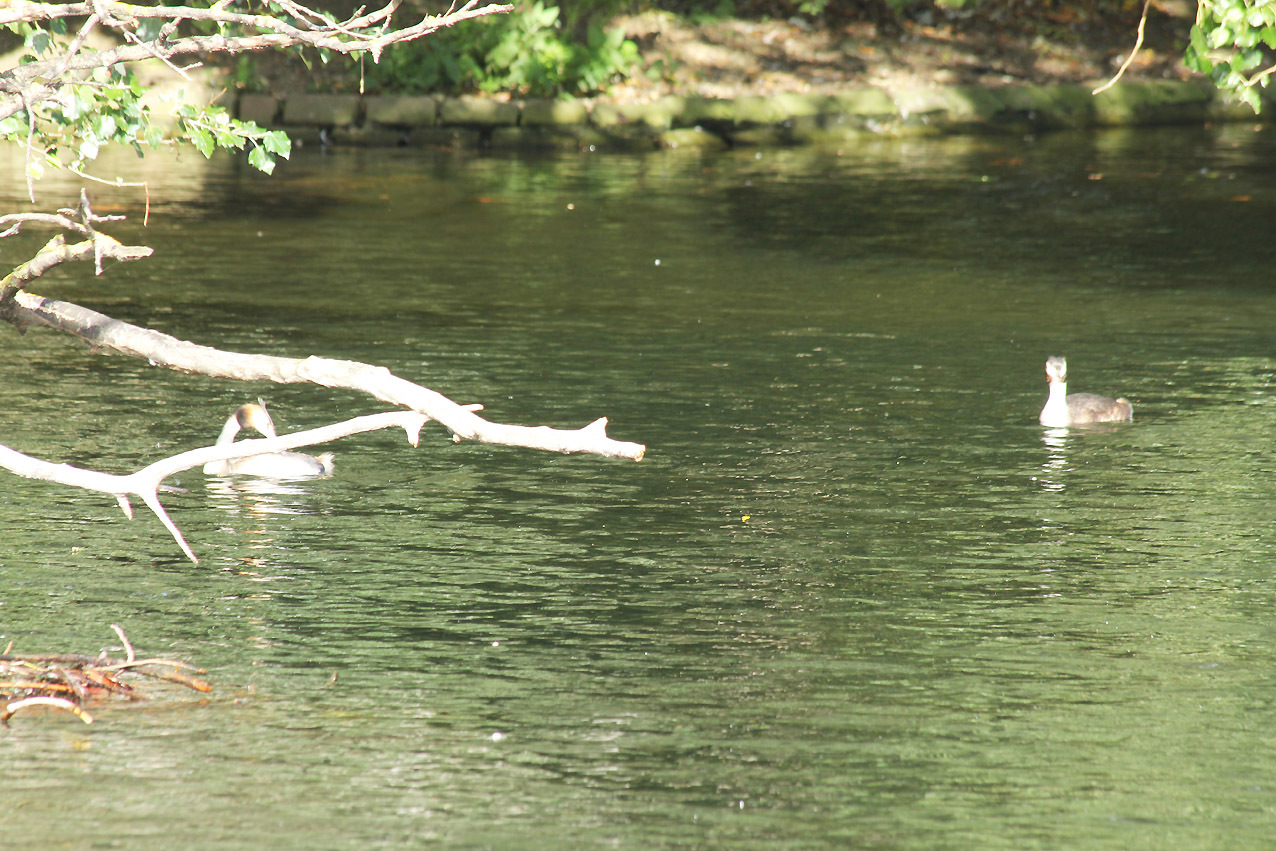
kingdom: Animalia
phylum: Chordata
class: Aves
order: Podicipediformes
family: Podicipedidae
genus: Podiceps
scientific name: Podiceps cristatus
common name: Great crested grebe
